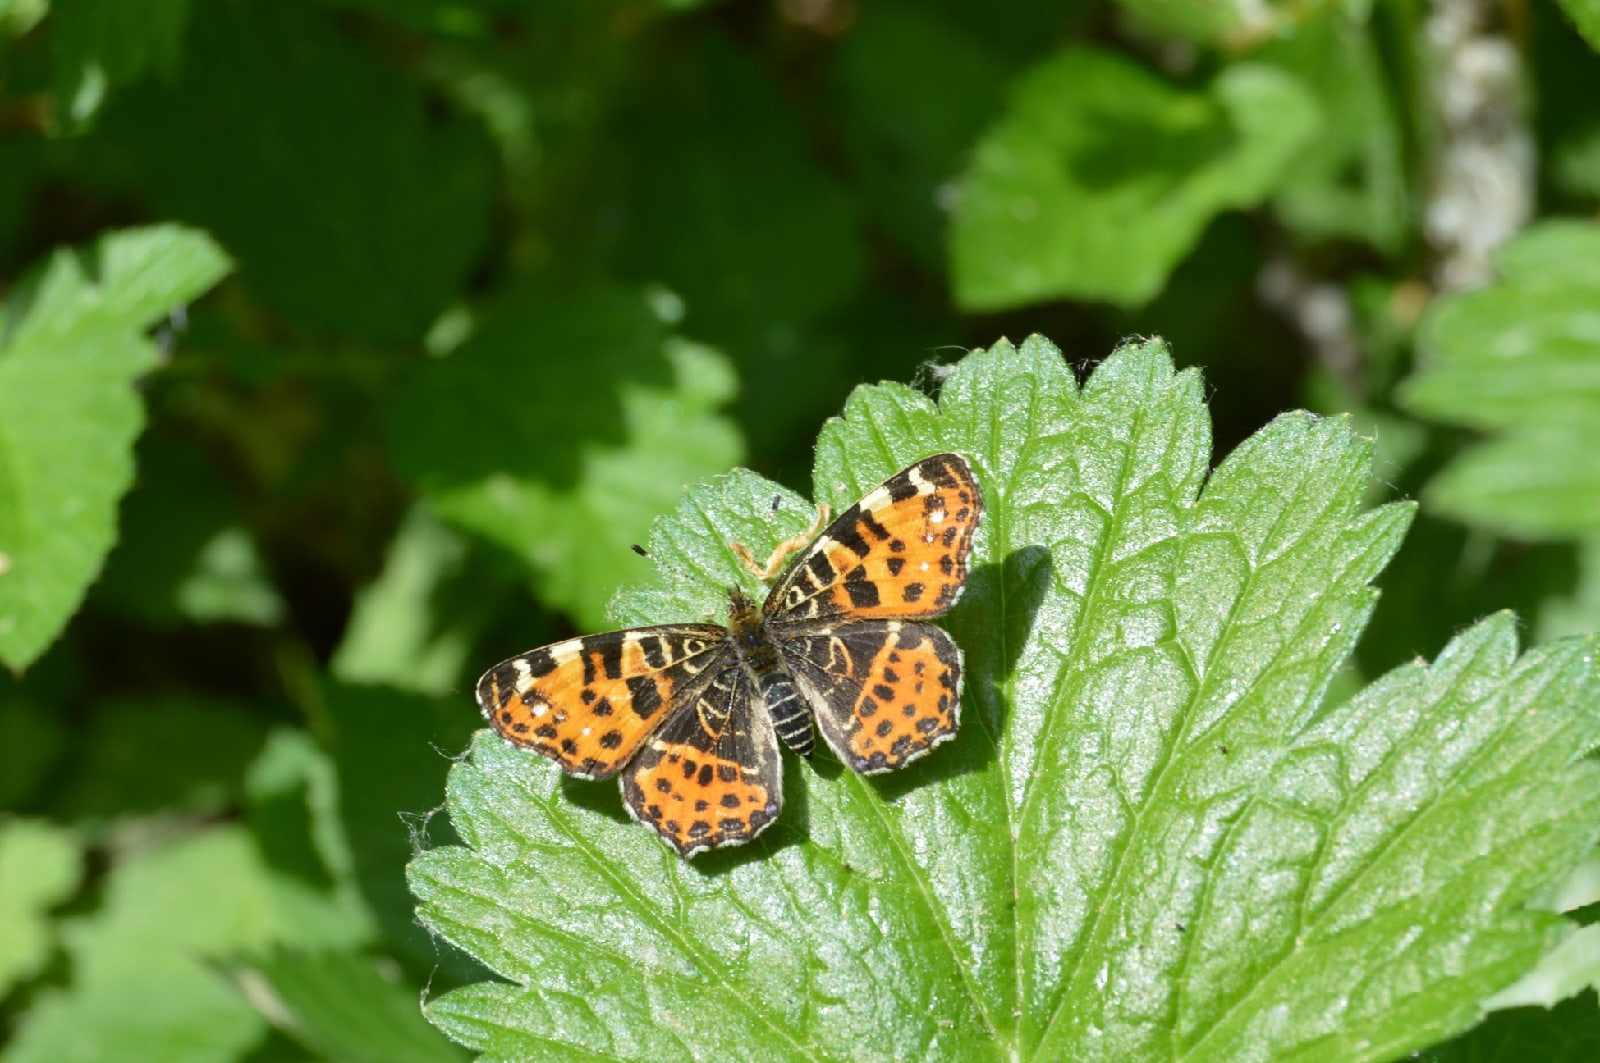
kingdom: Animalia
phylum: Arthropoda
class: Insecta
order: Lepidoptera
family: Nymphalidae
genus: Araschnia
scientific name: Araschnia levana
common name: Map butterfly
